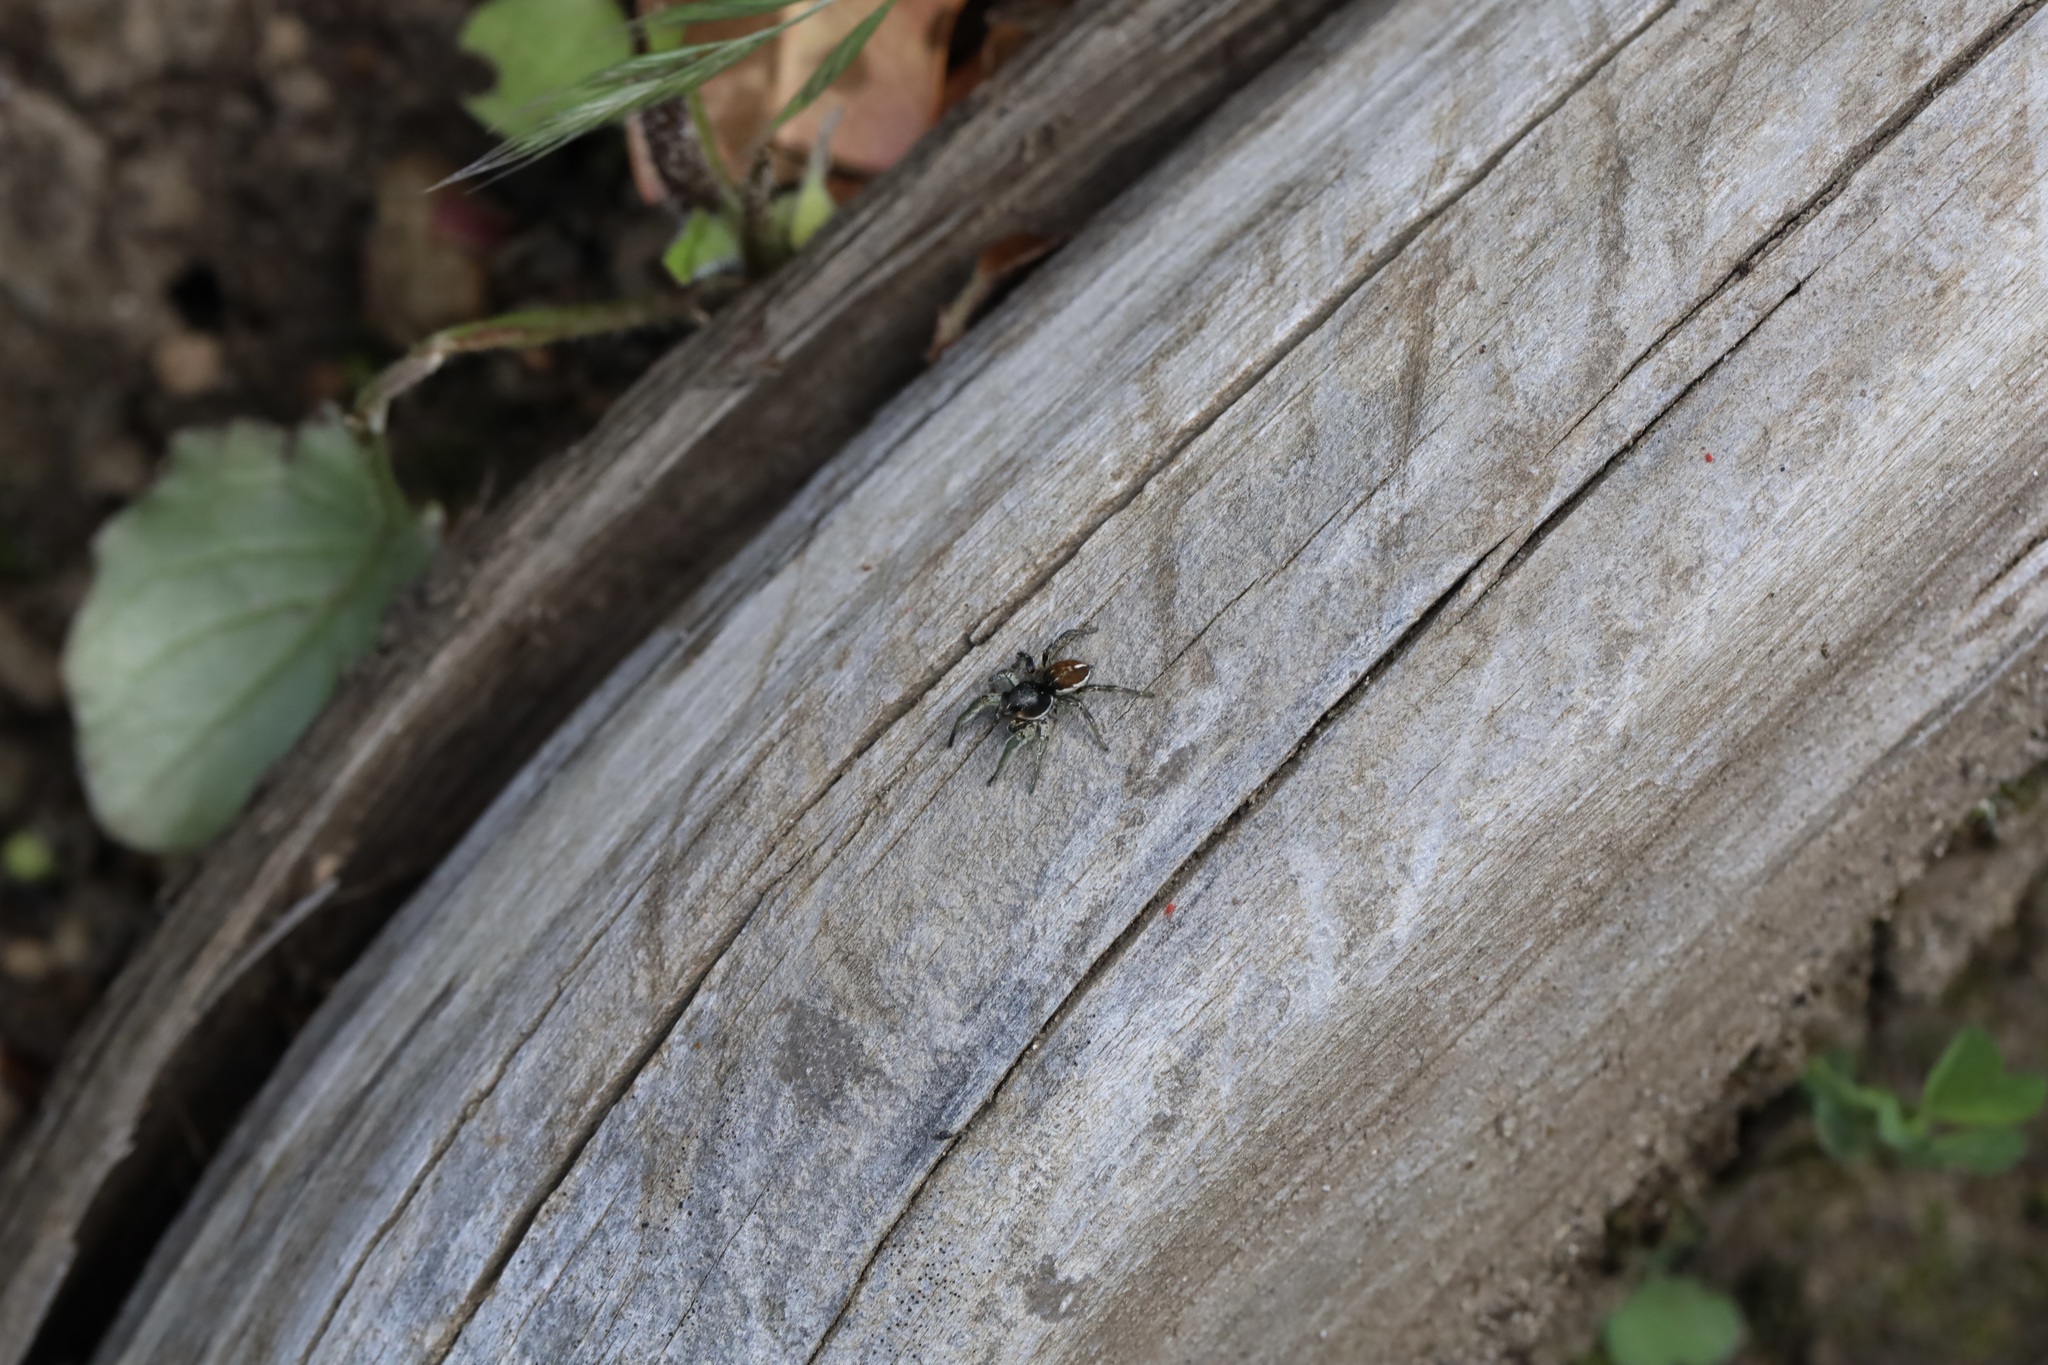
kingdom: Animalia
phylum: Arthropoda
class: Arachnida
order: Araneae
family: Salticidae
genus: Habronattus
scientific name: Habronattus ophrys
